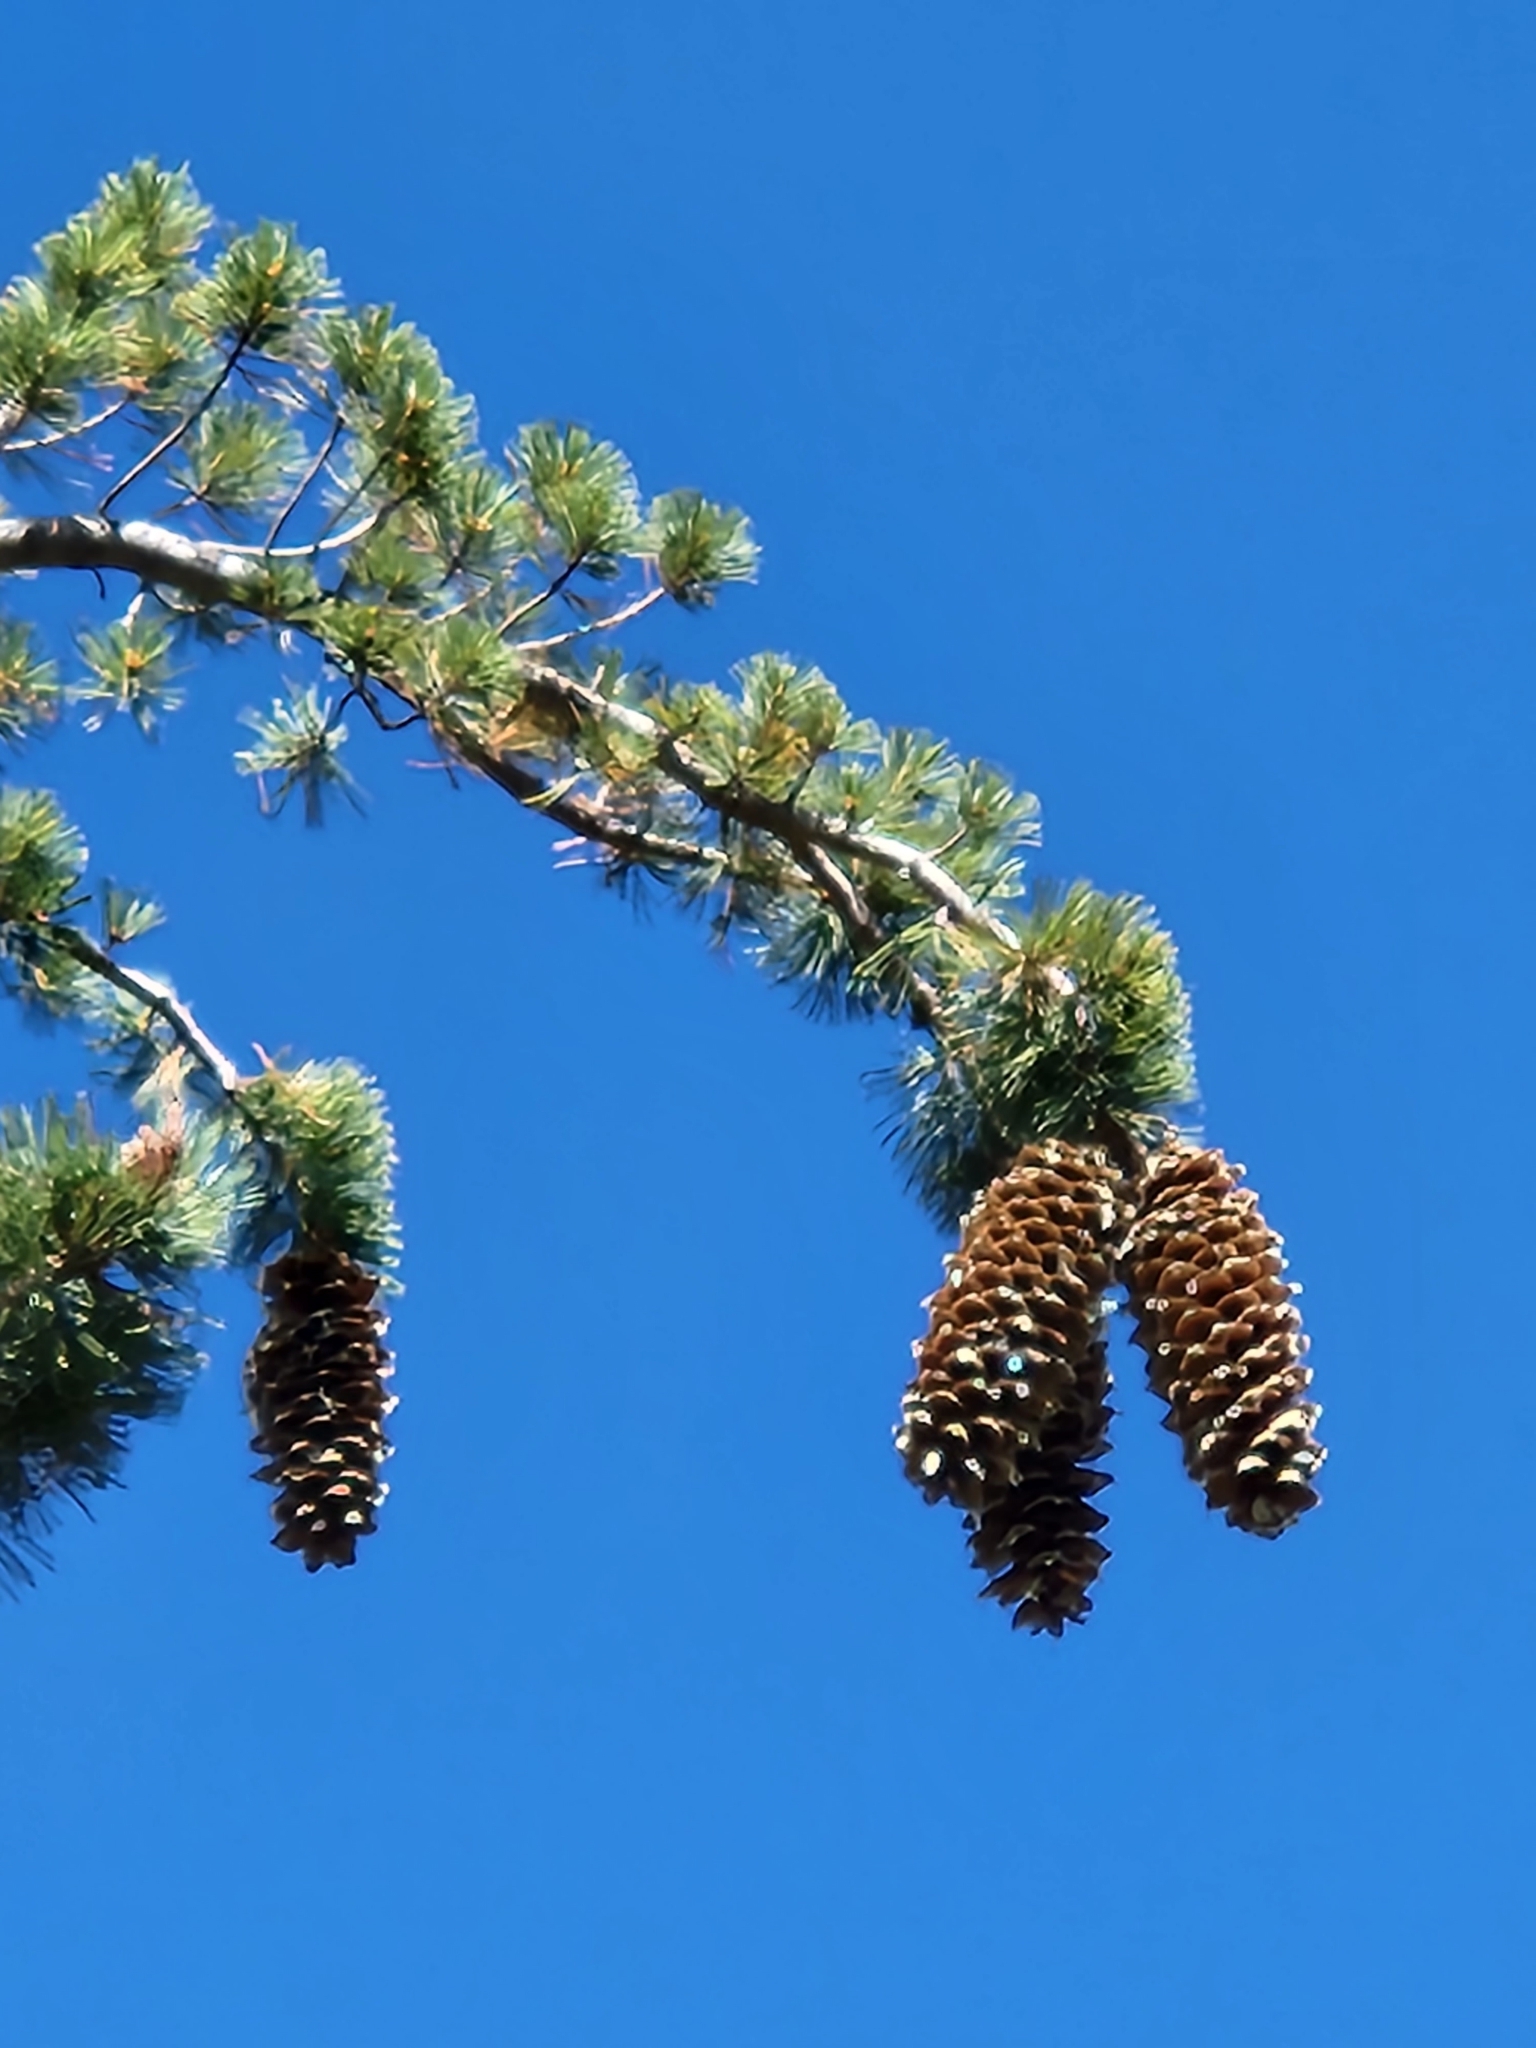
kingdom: Plantae
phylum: Tracheophyta
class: Pinopsida
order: Pinales
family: Pinaceae
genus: Pinus
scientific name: Pinus lambertiana
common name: Sugar pine
